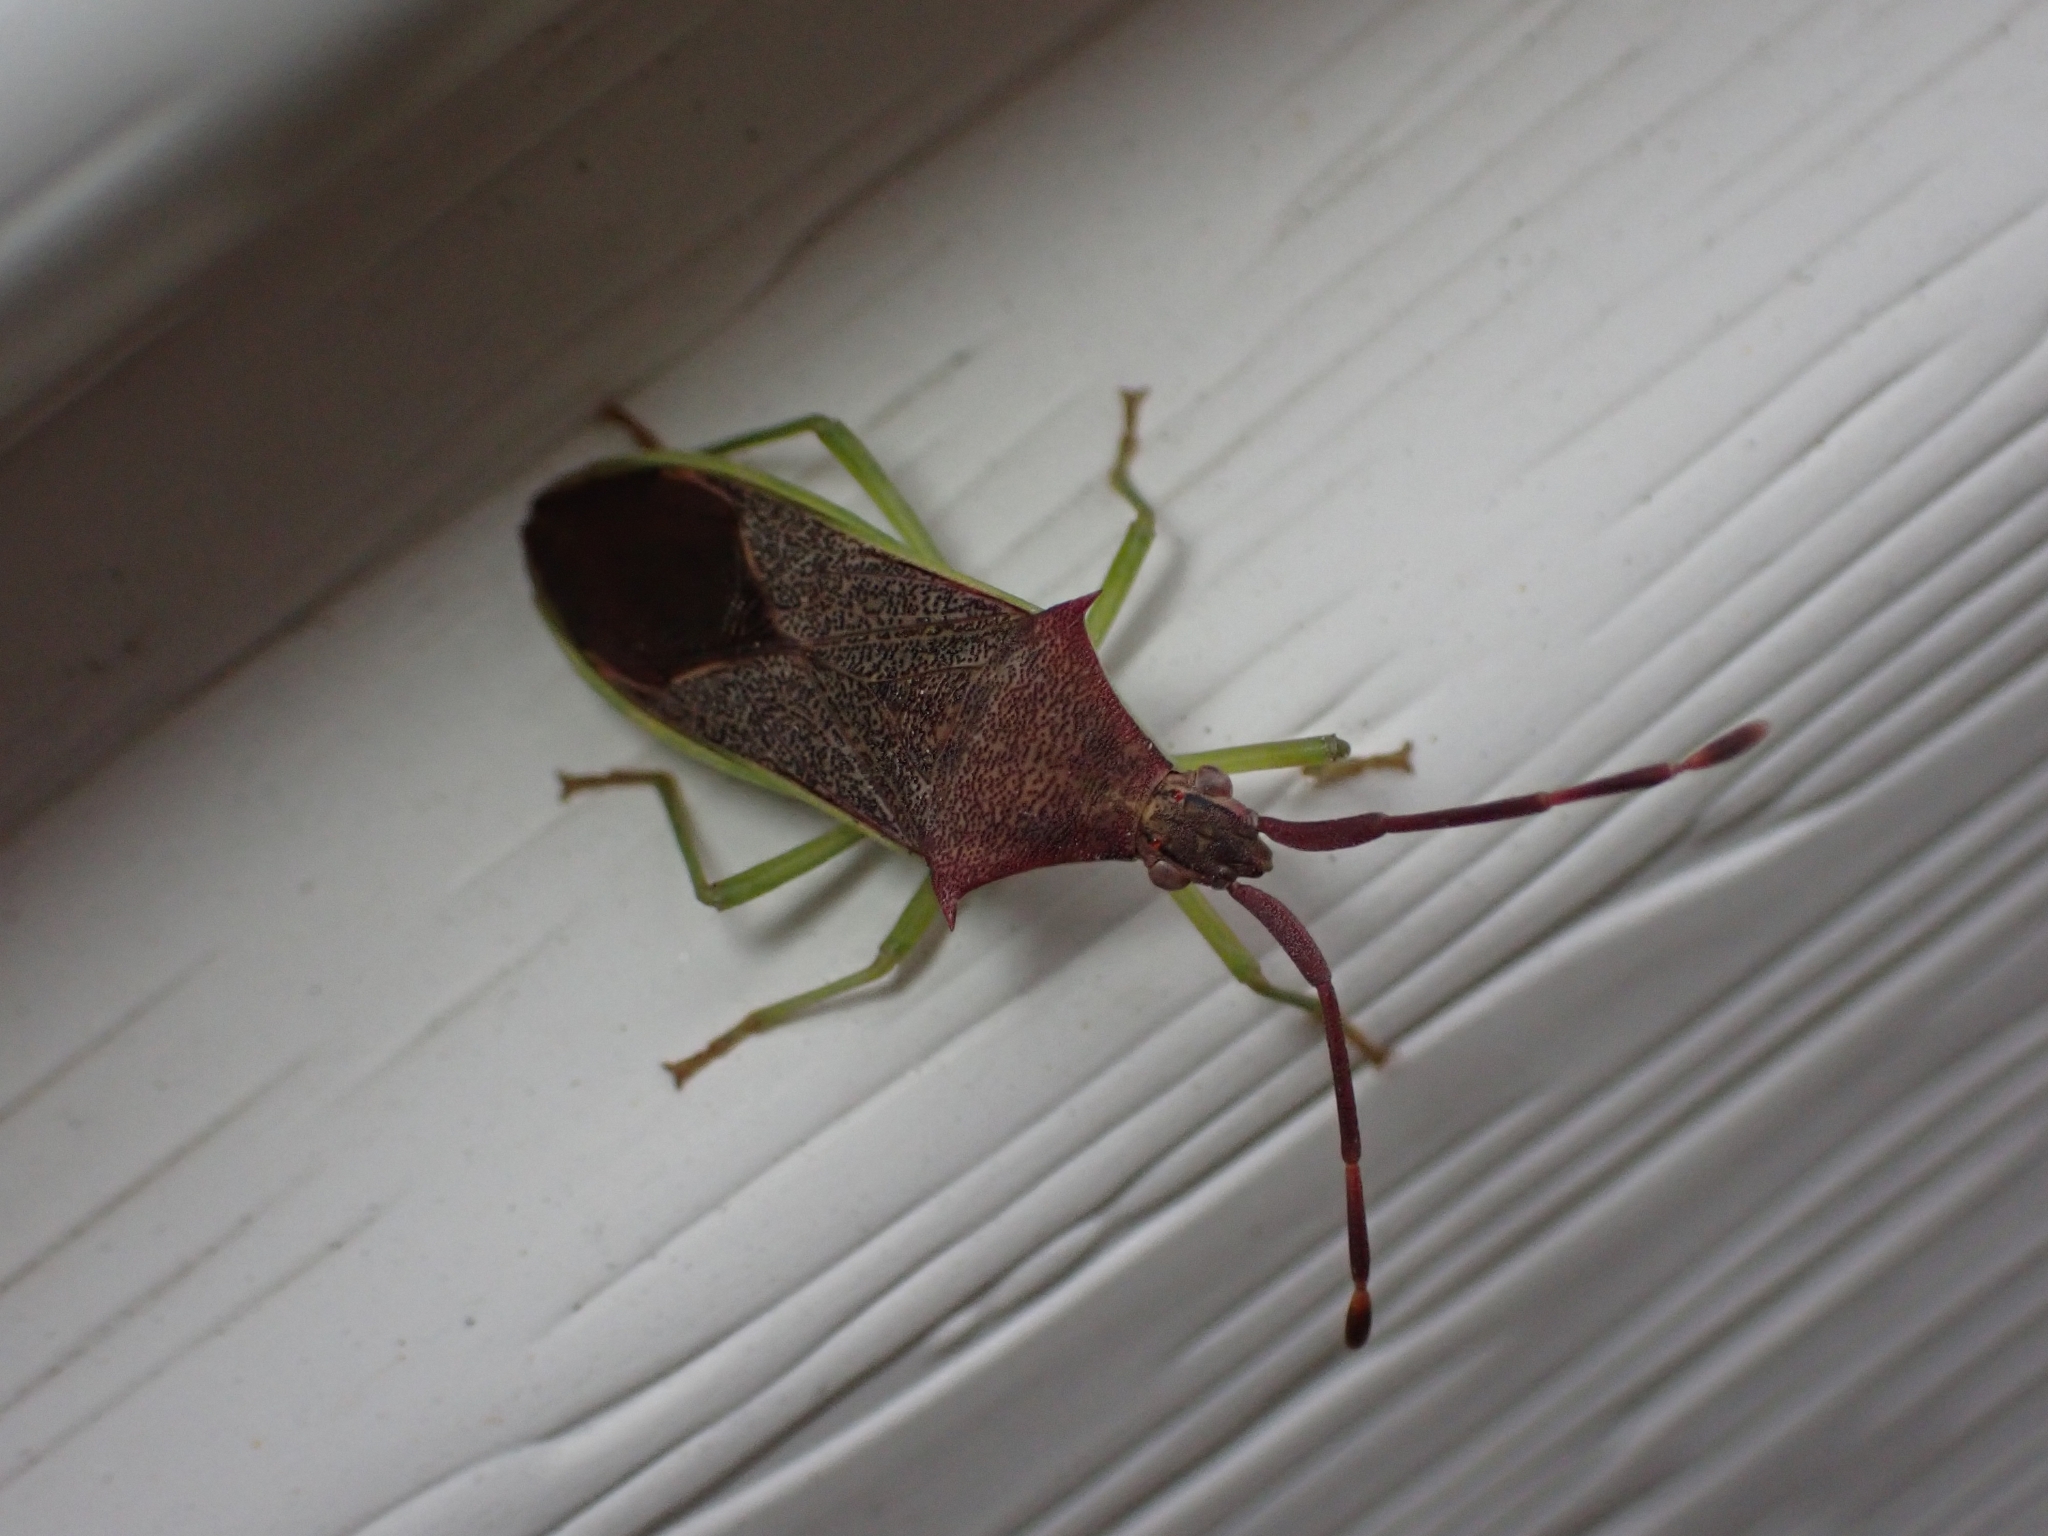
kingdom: Animalia
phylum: Arthropoda
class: Insecta
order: Hemiptera
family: Coreidae
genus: Plinachtus
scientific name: Plinachtus imitator
